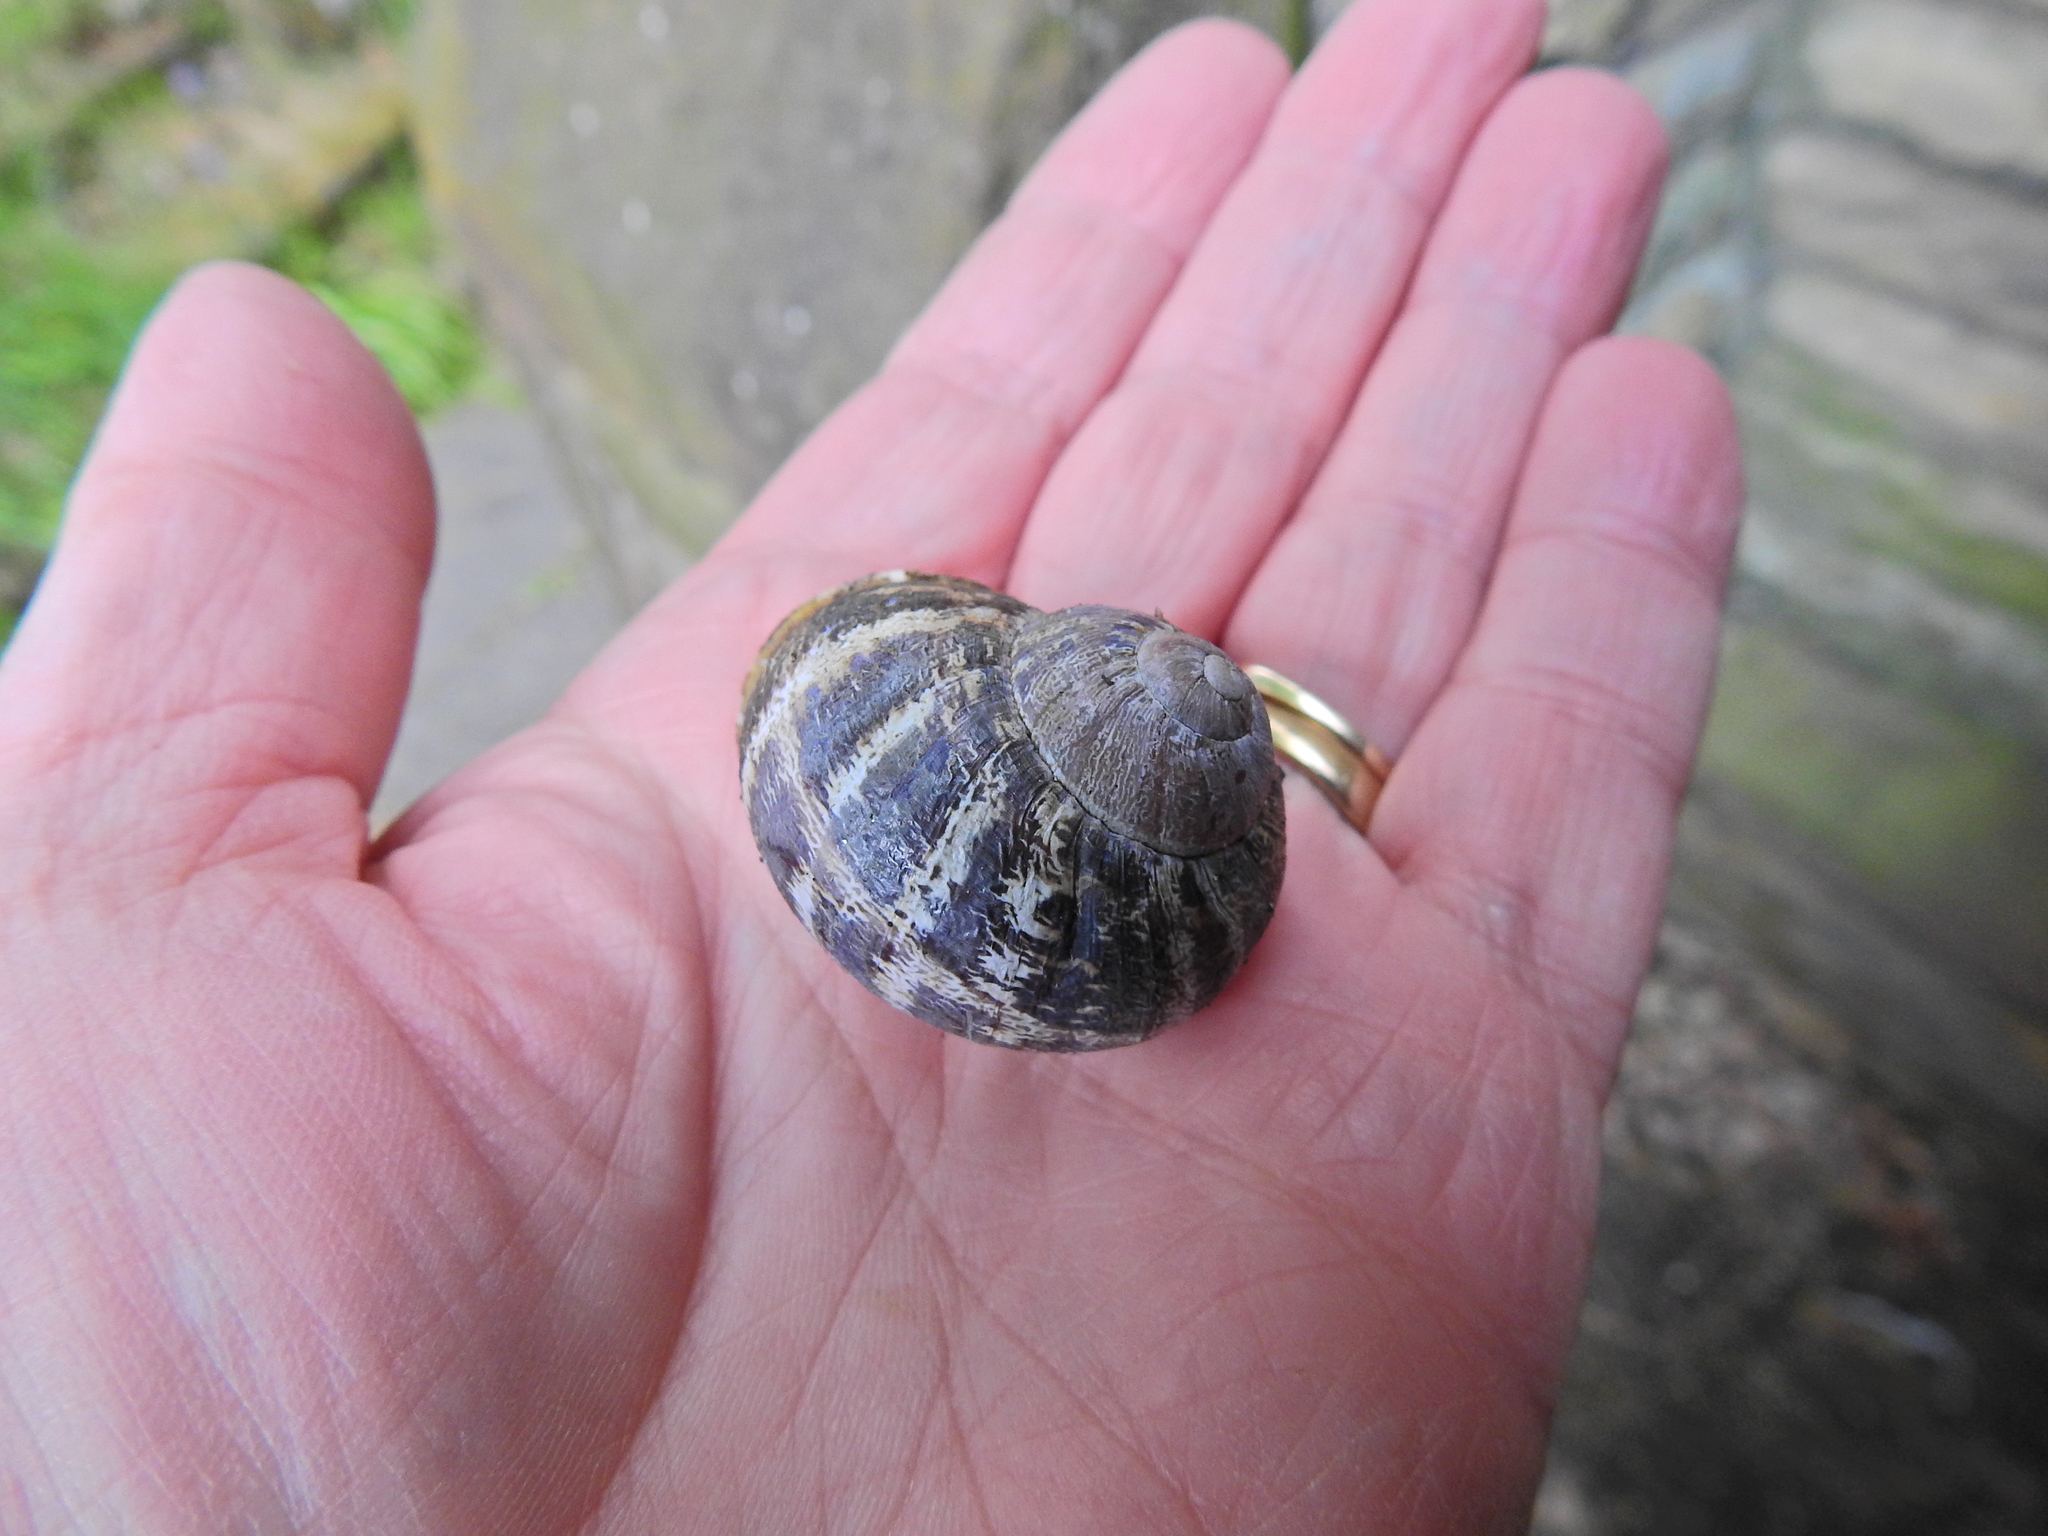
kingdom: Animalia
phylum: Mollusca
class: Gastropoda
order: Stylommatophora
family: Helicidae
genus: Cornu
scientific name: Cornu aspersum
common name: Brown garden snail
